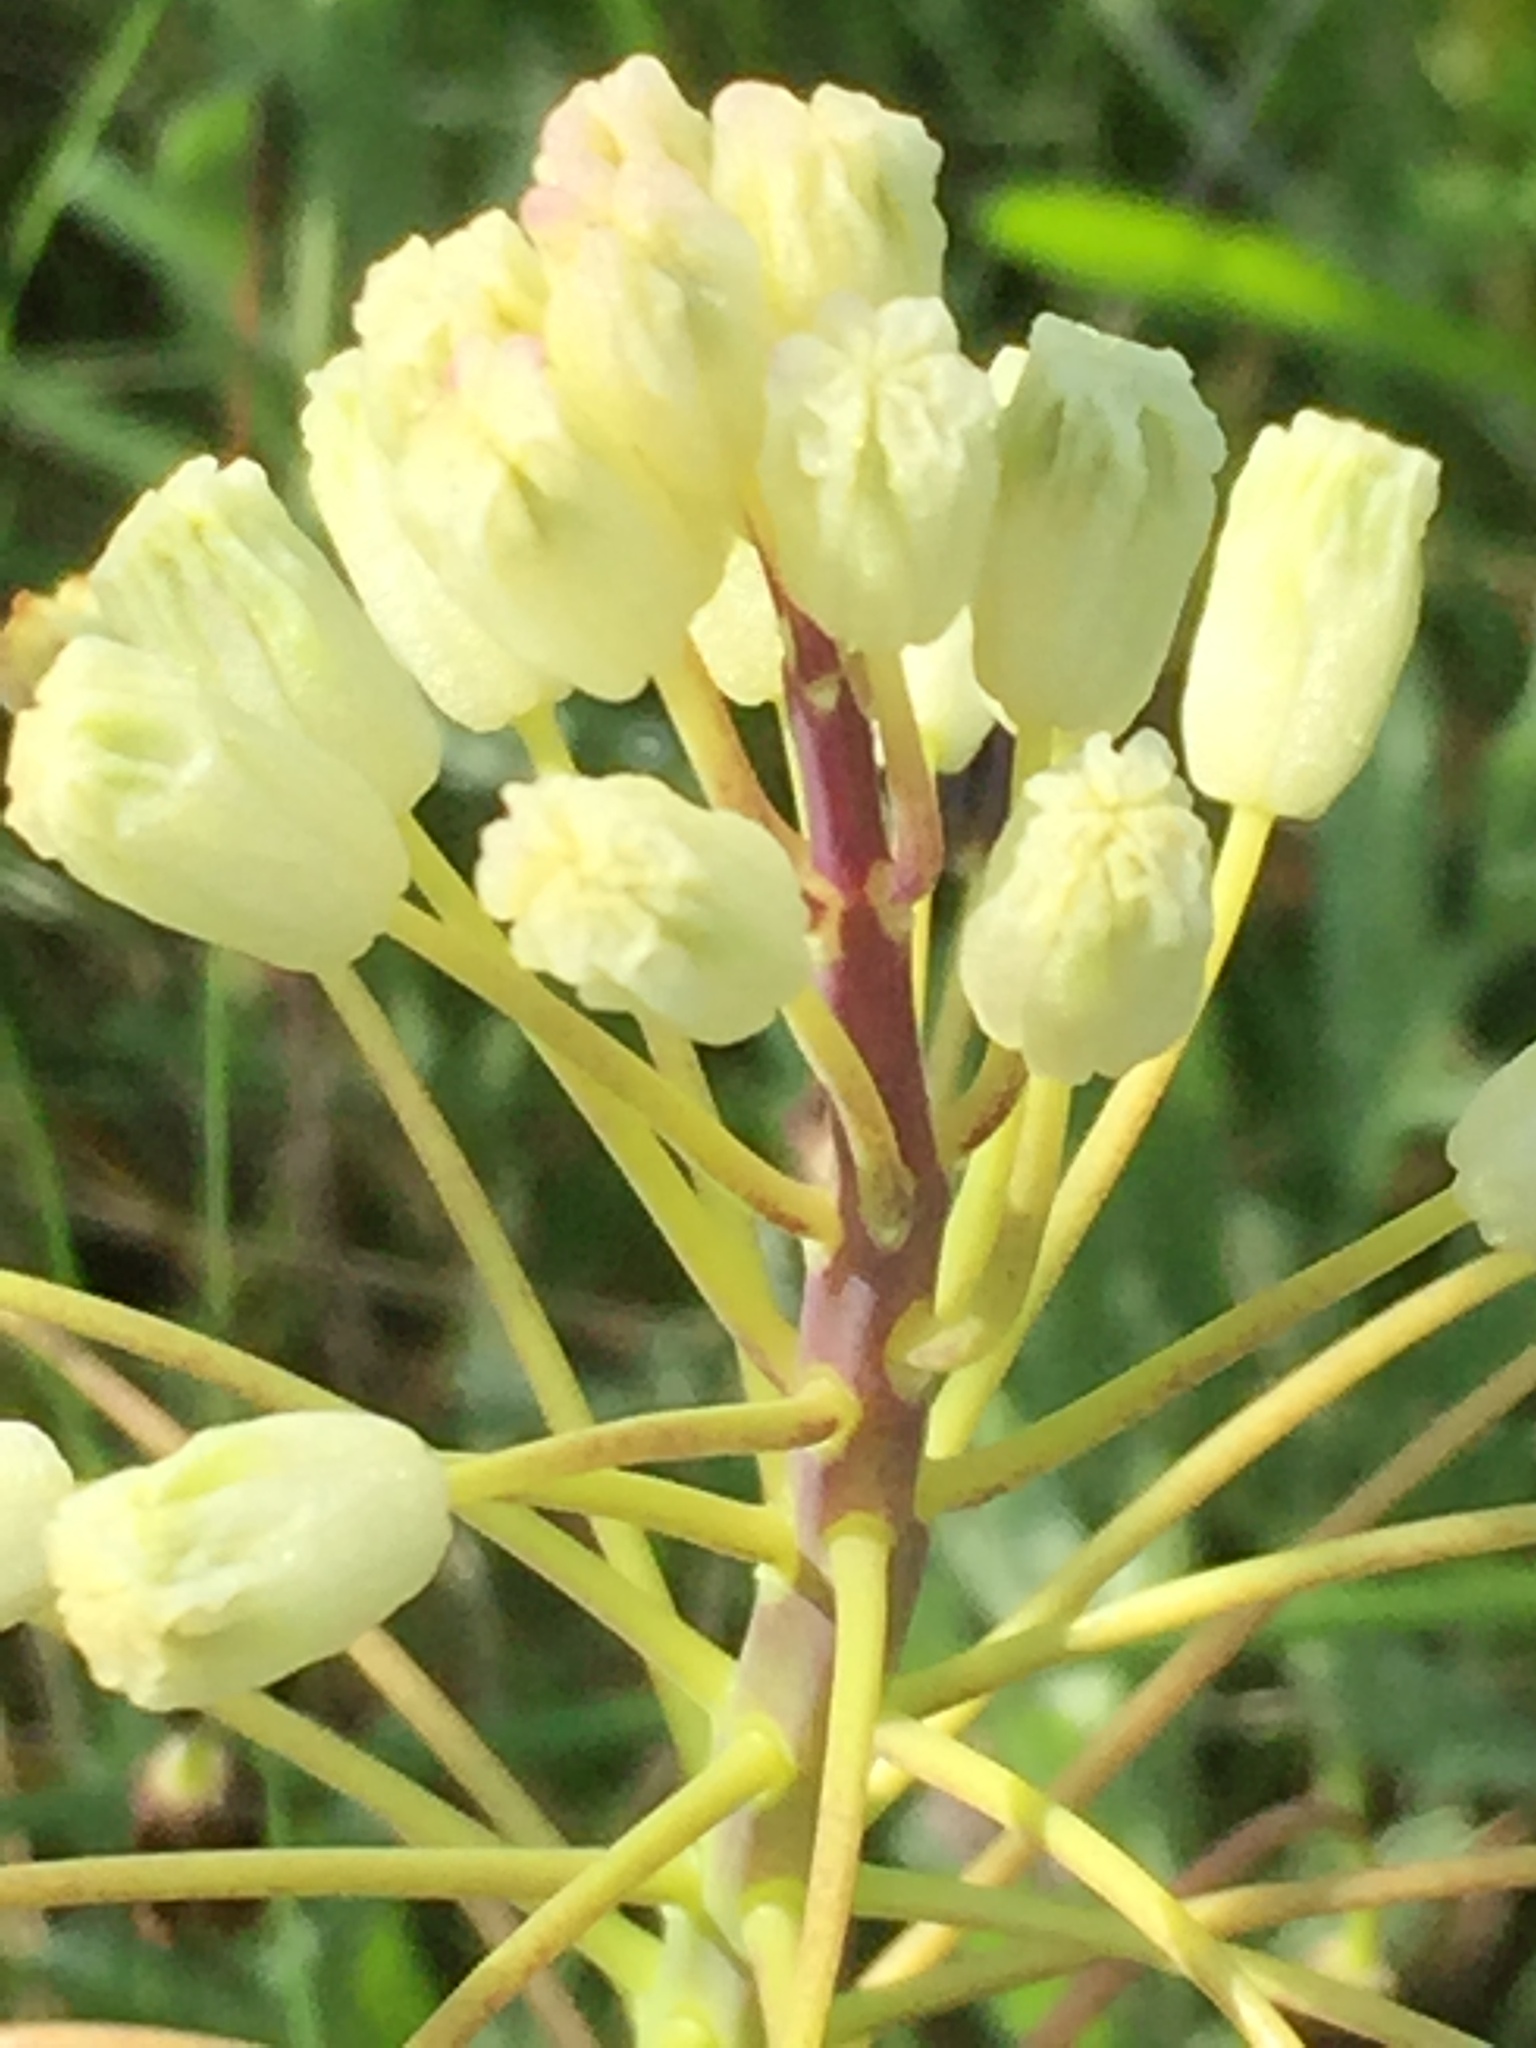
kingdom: Plantae
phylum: Tracheophyta
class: Liliopsida
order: Asparagales
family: Asparagaceae
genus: Bellevalia
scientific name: Bellevalia speciosa
